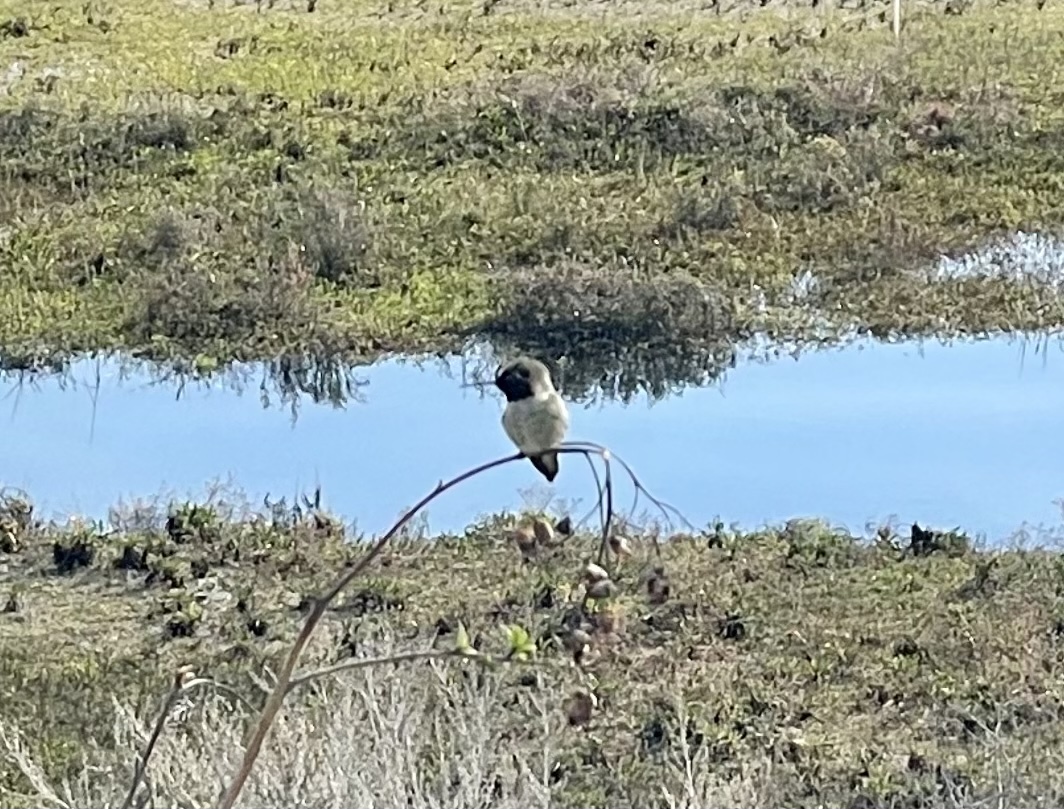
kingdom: Animalia
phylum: Chordata
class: Aves
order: Apodiformes
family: Trochilidae
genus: Calypte
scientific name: Calypte anna
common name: Anna's hummingbird
